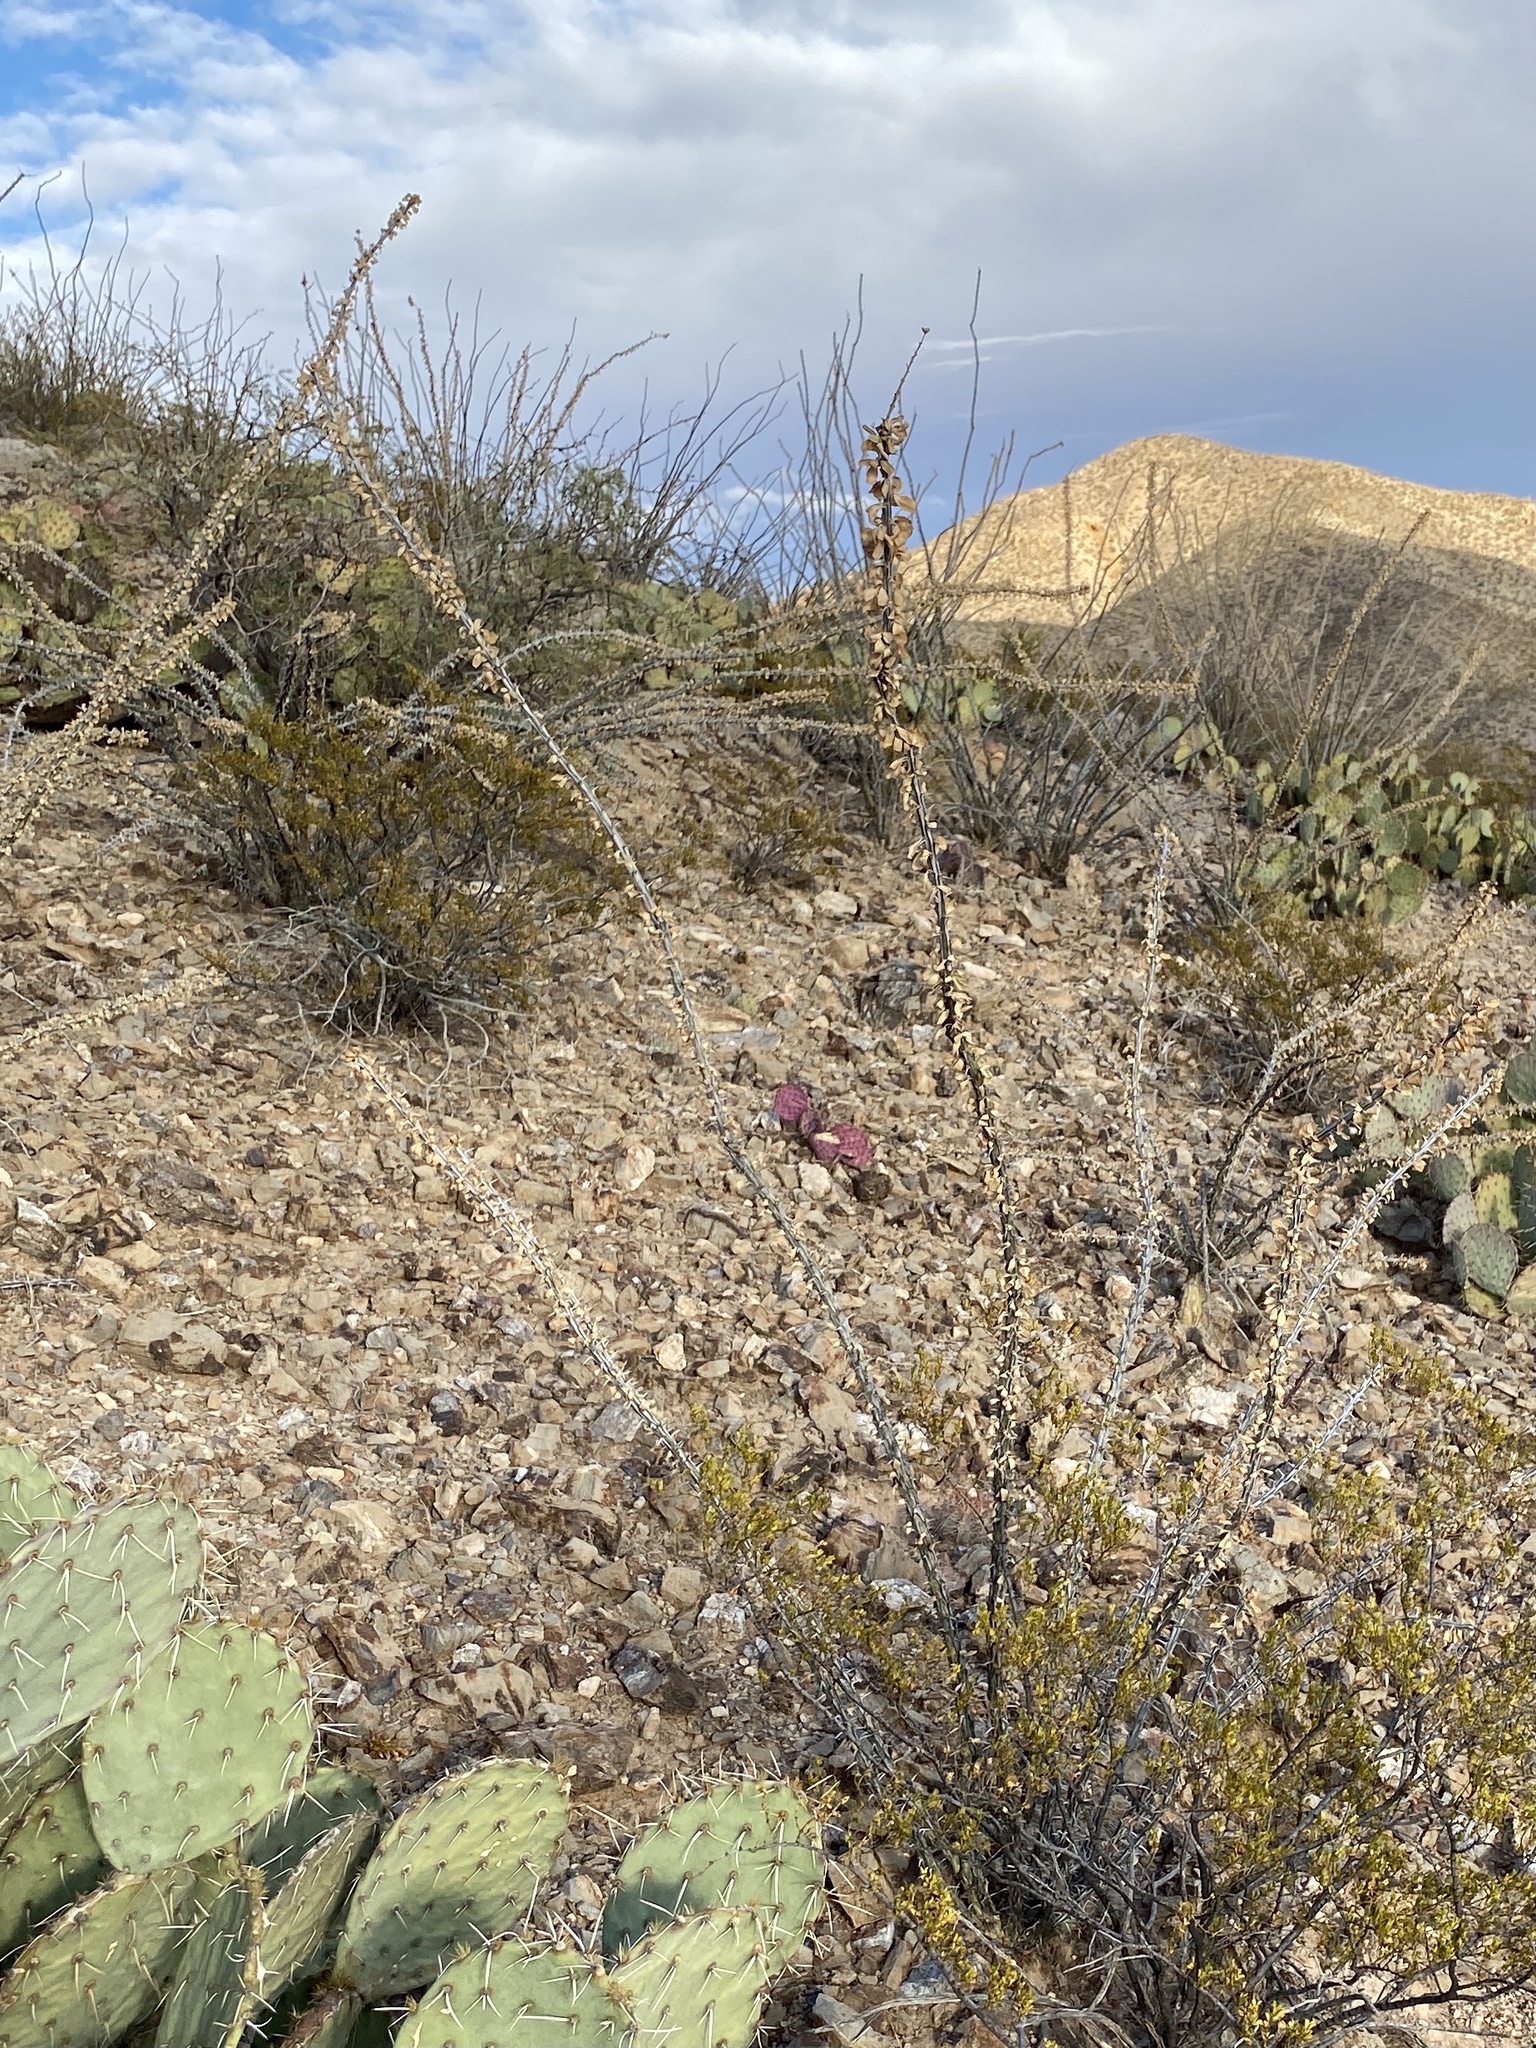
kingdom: Plantae
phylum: Tracheophyta
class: Magnoliopsida
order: Ericales
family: Fouquieriaceae
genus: Fouquieria
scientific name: Fouquieria splendens
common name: Vine-cactus
